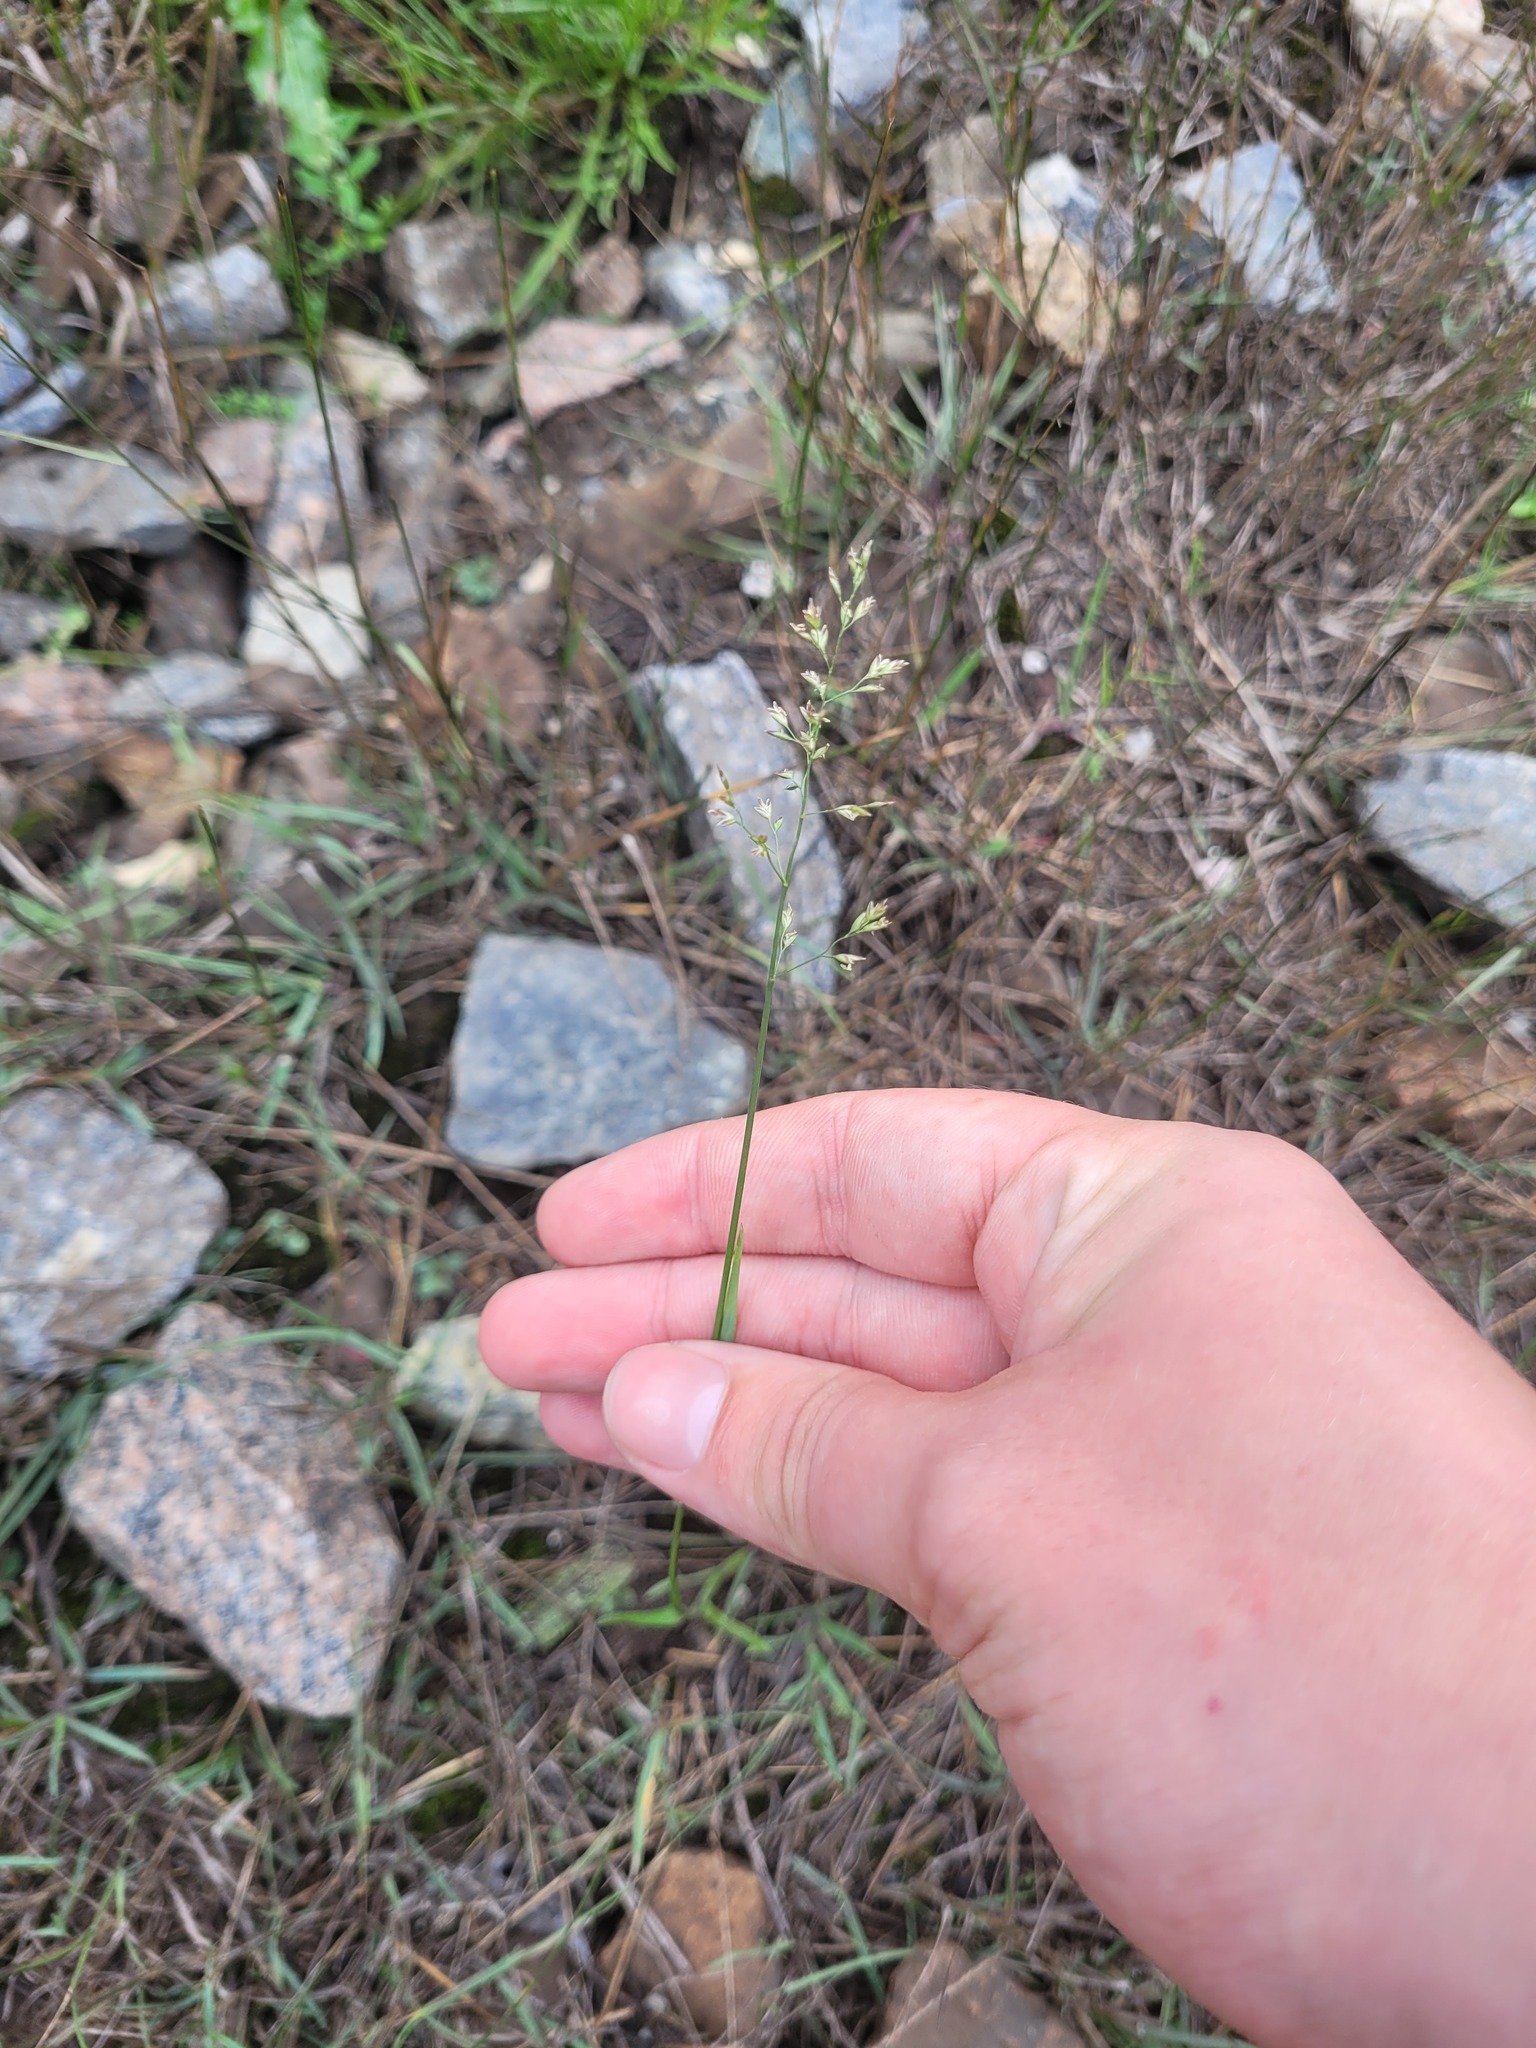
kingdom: Plantae
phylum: Tracheophyta
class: Liliopsida
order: Poales
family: Poaceae
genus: Poa
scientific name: Poa compressa
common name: Canada bluegrass
